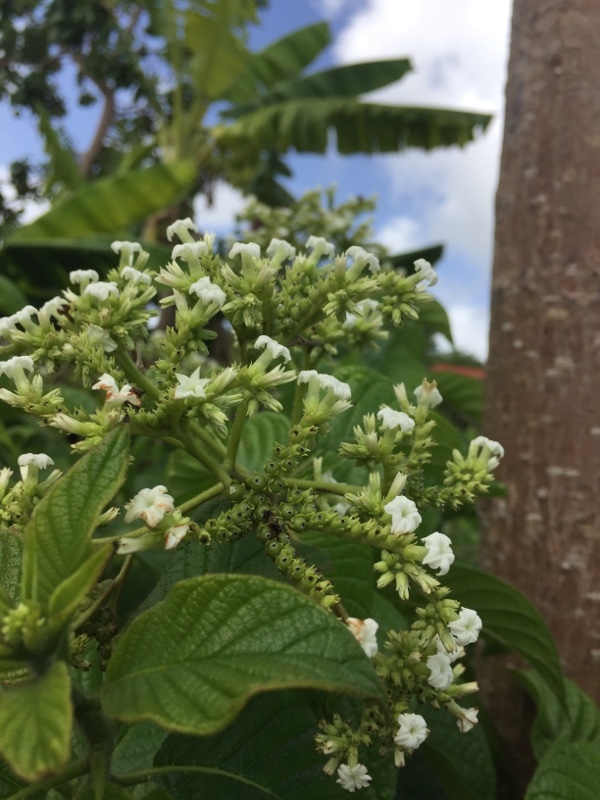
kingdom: Plantae
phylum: Tracheophyta
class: Magnoliopsida
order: Boraginales
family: Heliotropiaceae
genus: Heliotropium
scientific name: Heliotropium verdcourtii
